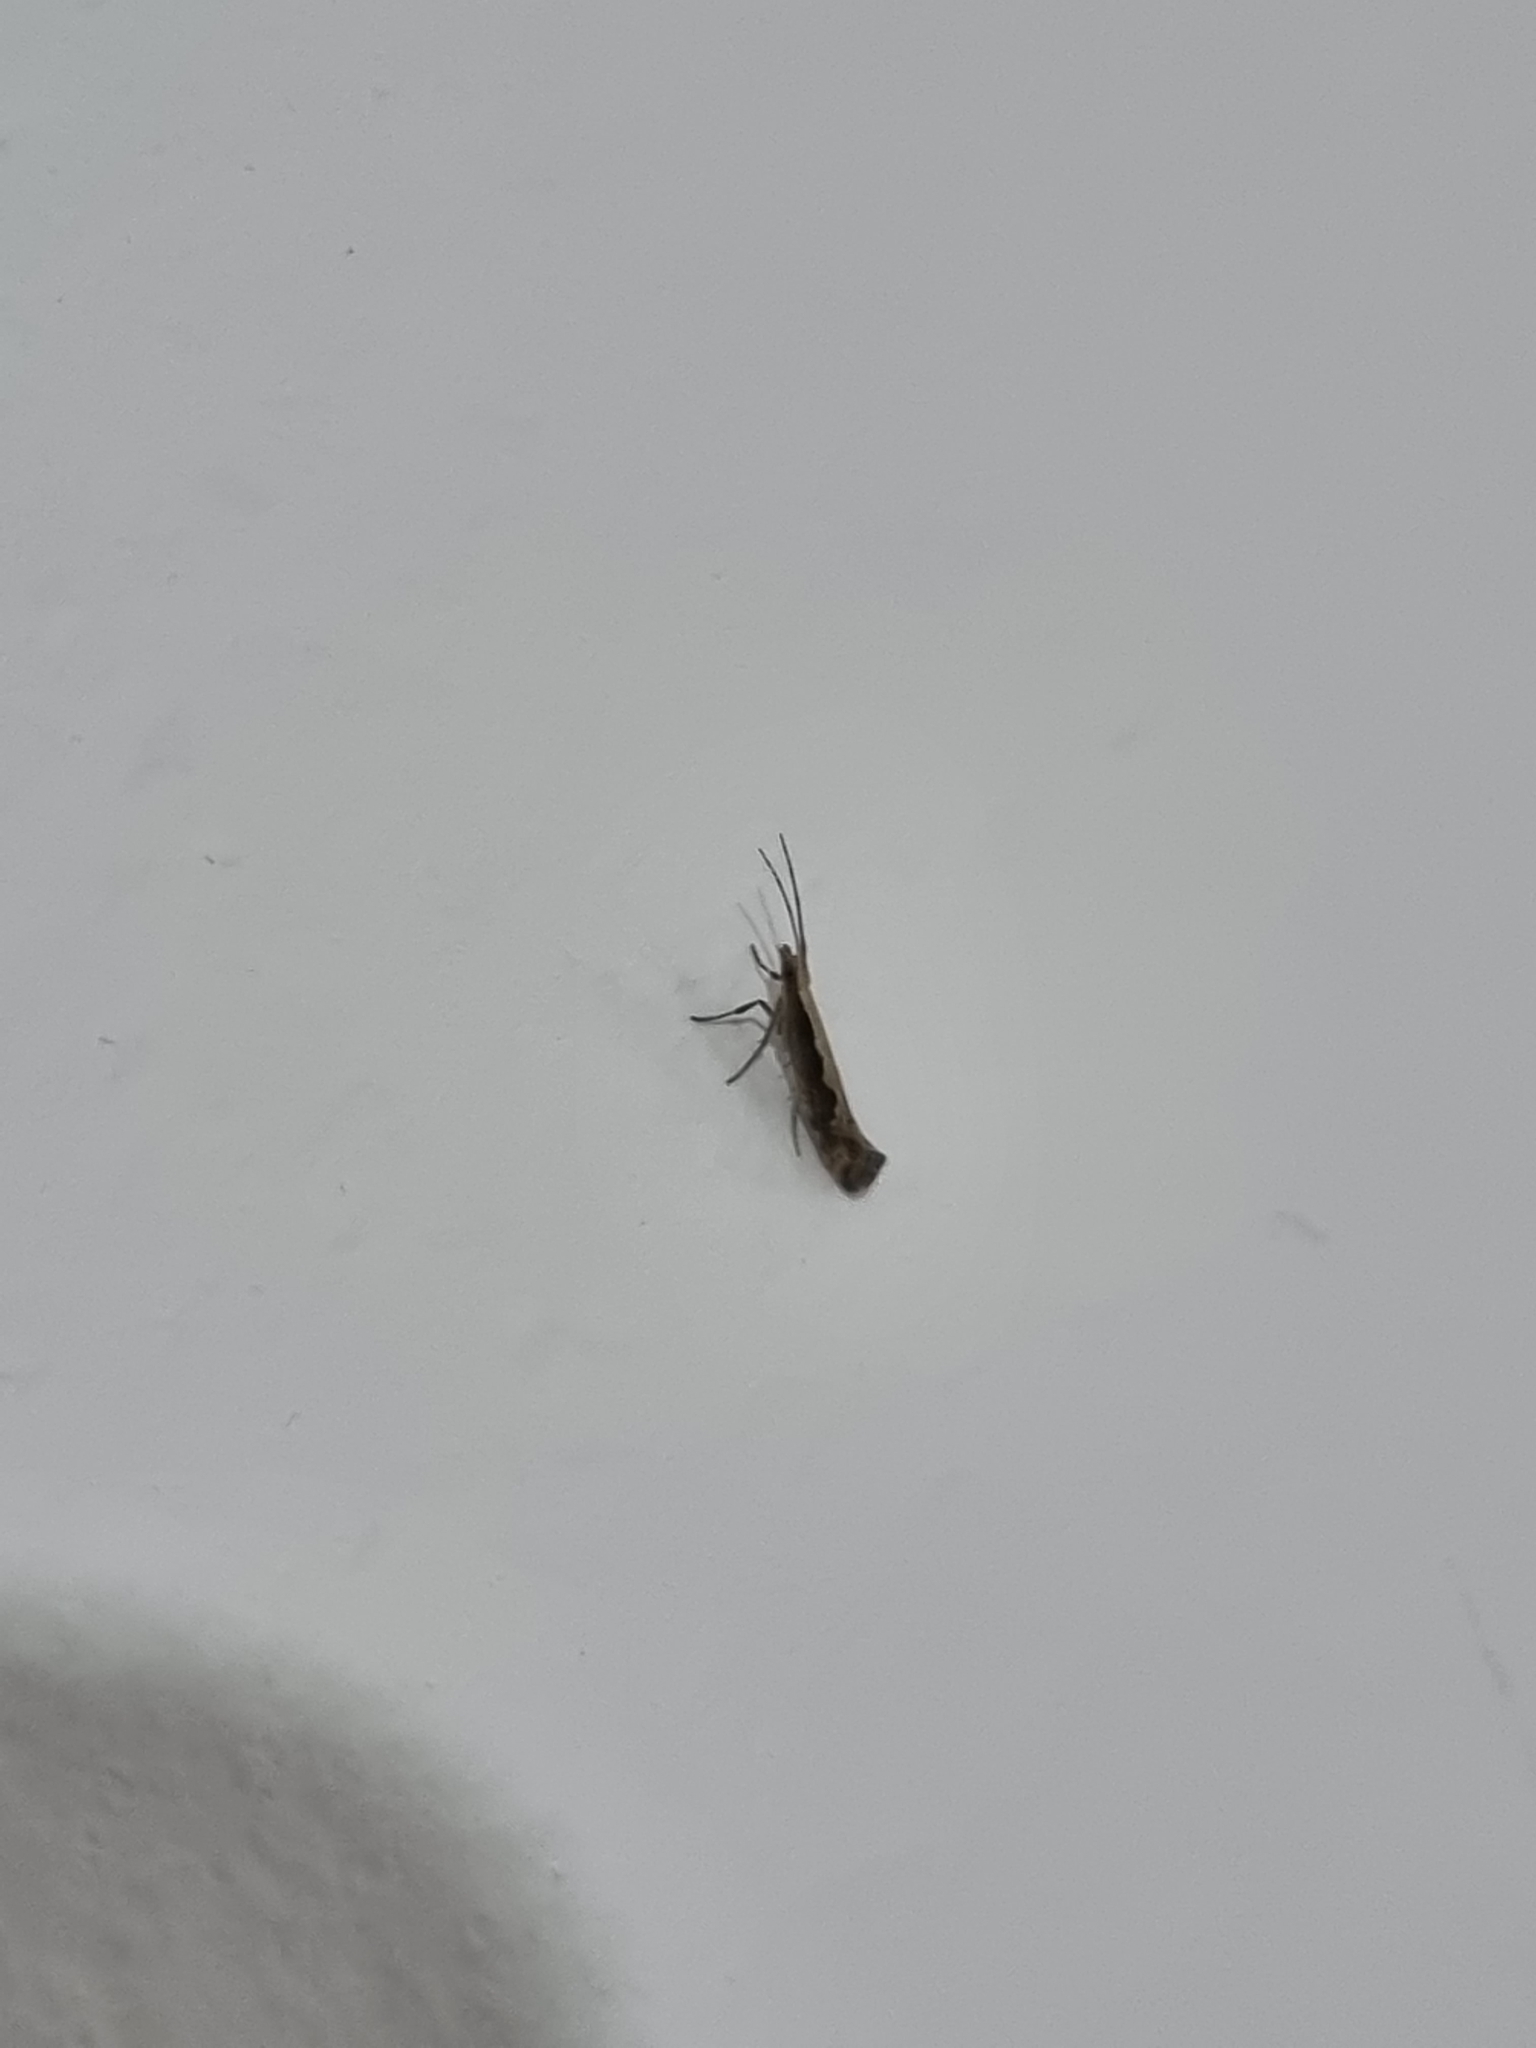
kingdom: Animalia
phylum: Arthropoda
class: Insecta
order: Lepidoptera
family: Plutellidae
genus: Plutella
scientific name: Plutella xylostella
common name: Diamond-back moth
